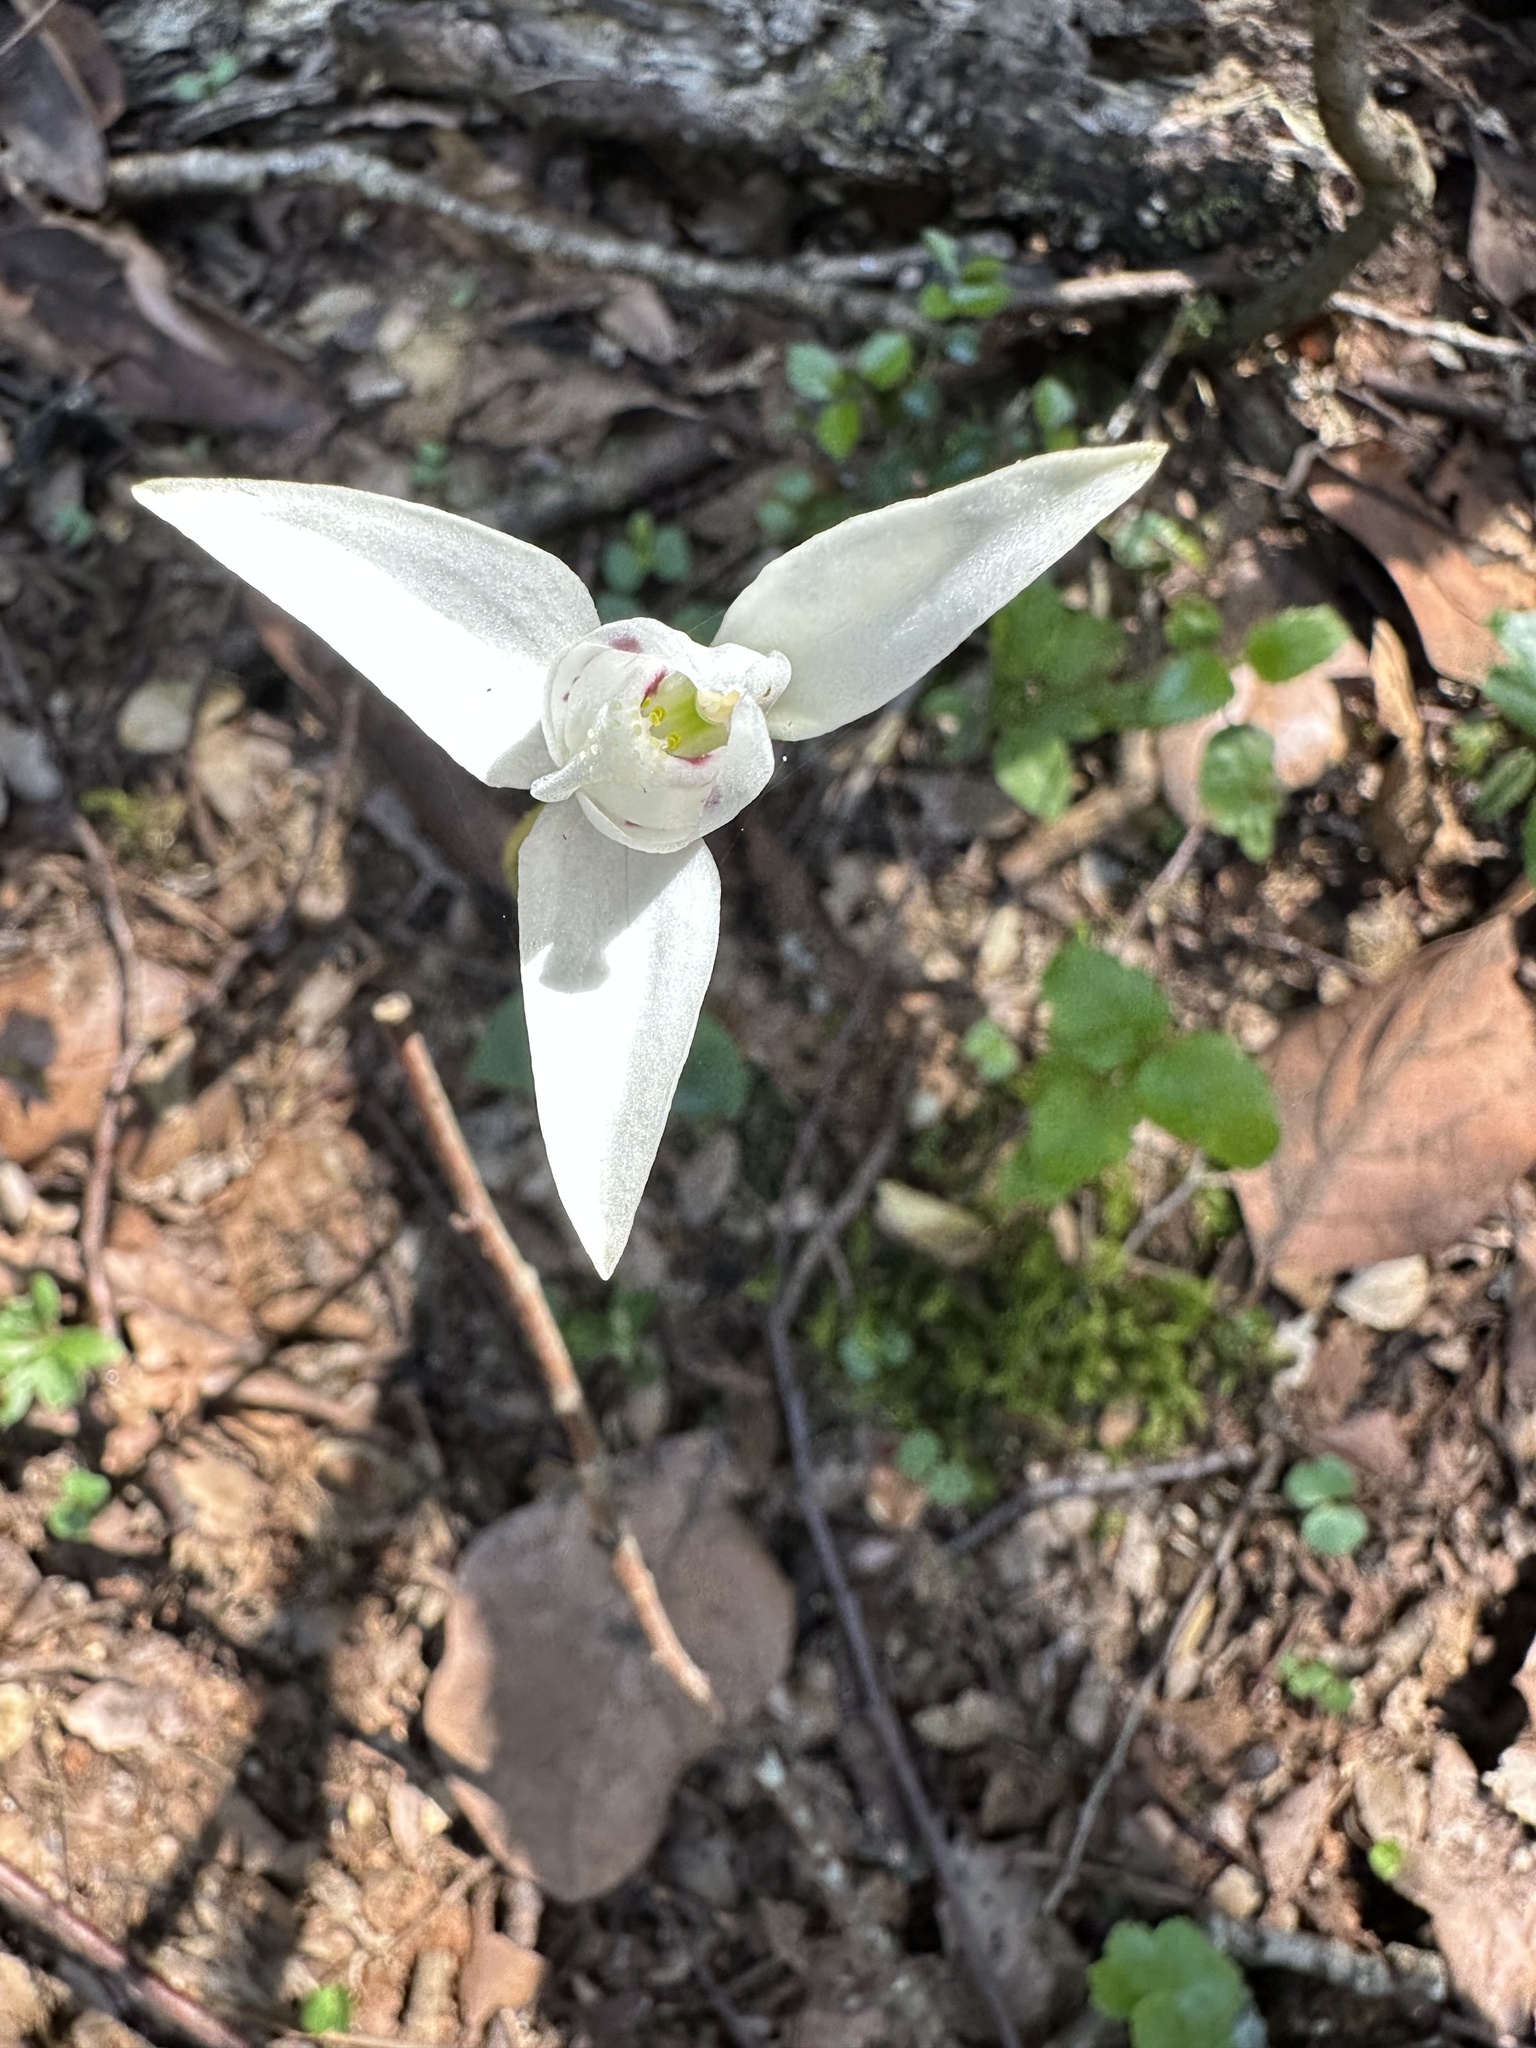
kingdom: Plantae
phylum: Tracheophyta
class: Liliopsida
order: Asparagales
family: Orchidaceae
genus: Codonorchis
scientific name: Codonorchis lessonii
